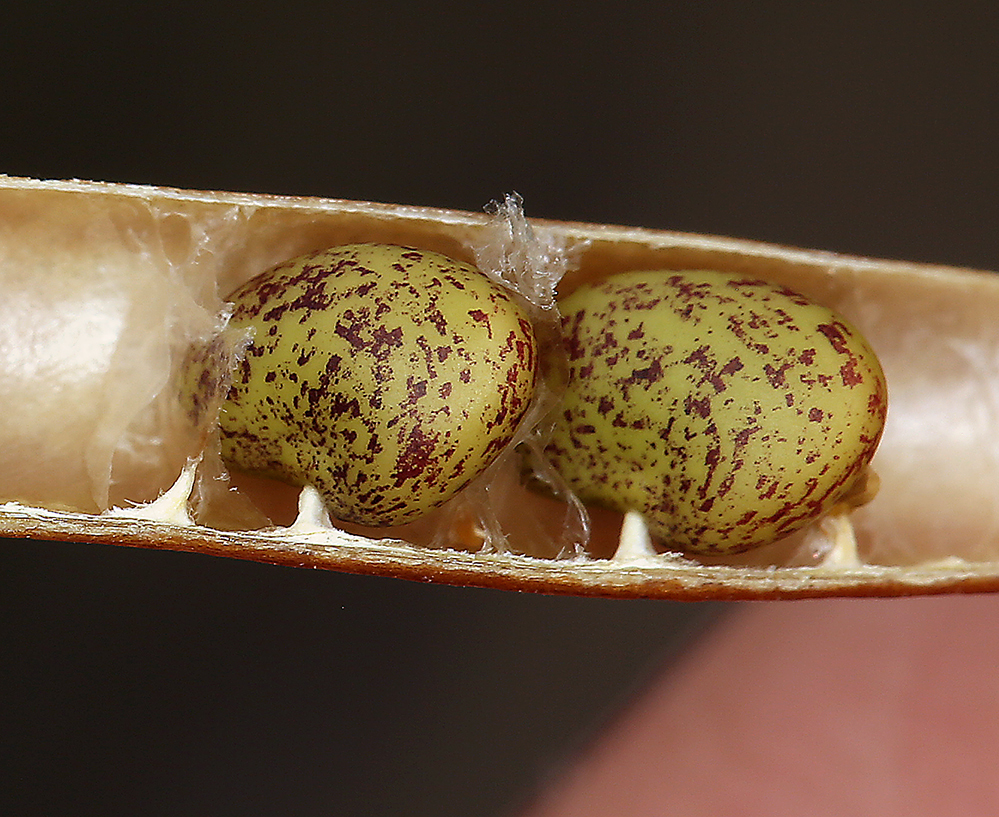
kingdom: Plantae
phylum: Tracheophyta
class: Magnoliopsida
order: Fabales
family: Fabaceae
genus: Hosackia
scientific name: Hosackia crassifolia
